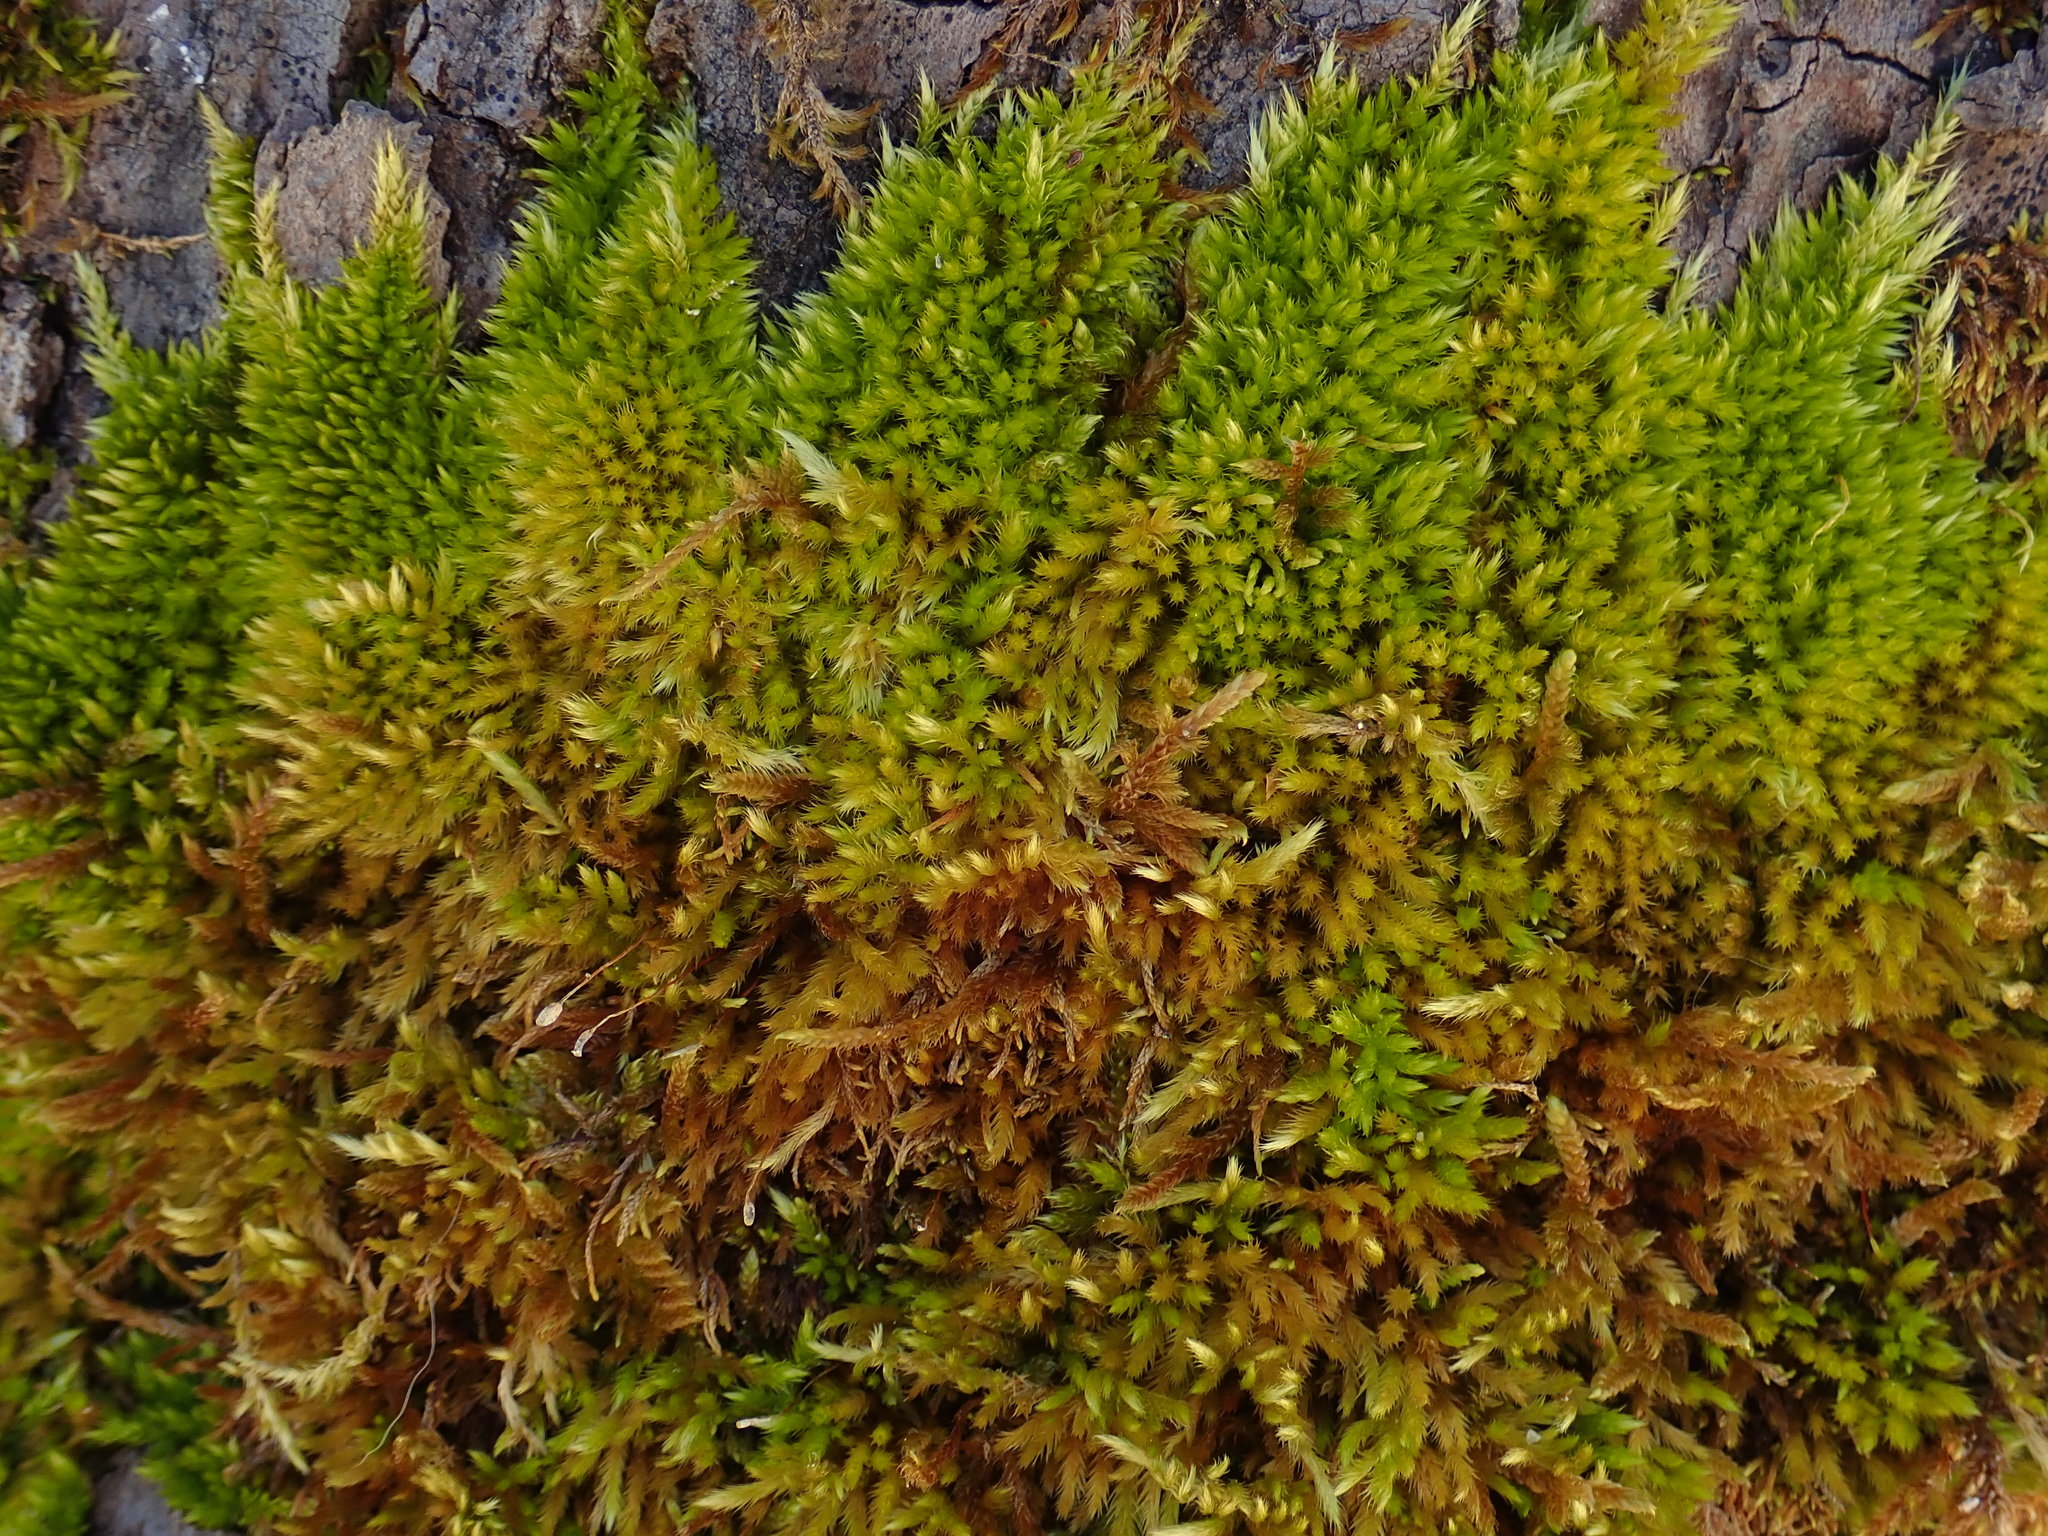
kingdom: Plantae
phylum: Bryophyta
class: Bryopsida
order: Hypnales
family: Brachytheciaceae
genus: Homalothecium
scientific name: Homalothecium sericeum
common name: Silky wall feather-moss
